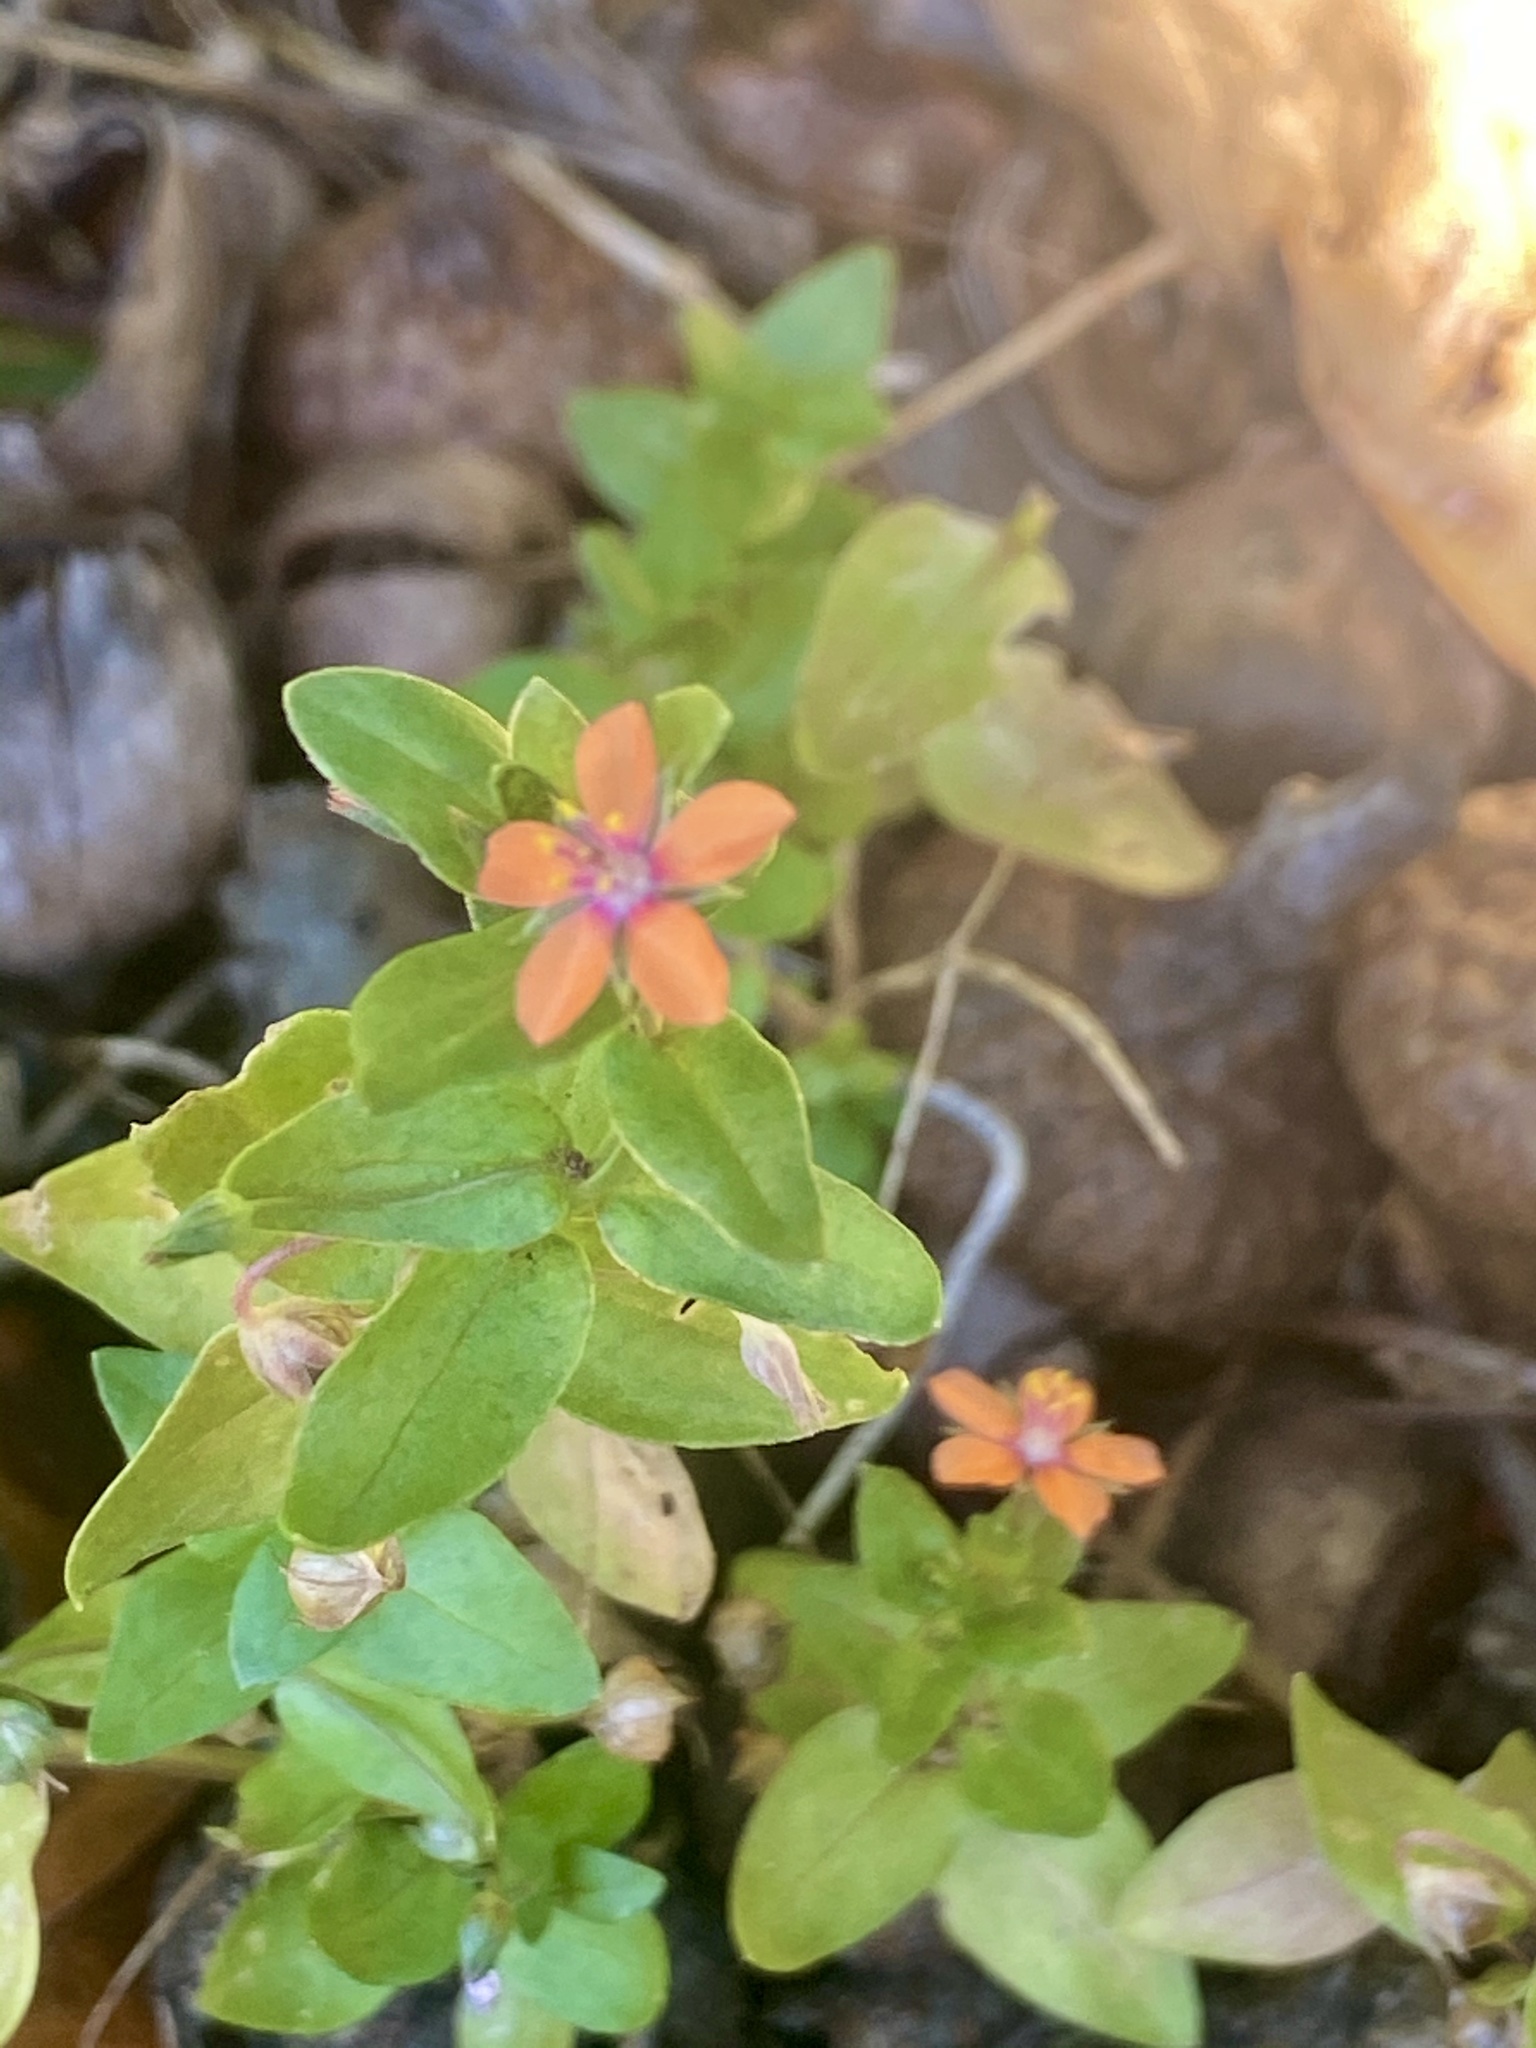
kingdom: Plantae
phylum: Tracheophyta
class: Magnoliopsida
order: Ericales
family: Primulaceae
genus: Lysimachia
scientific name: Lysimachia arvensis
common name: Scarlet pimpernel
